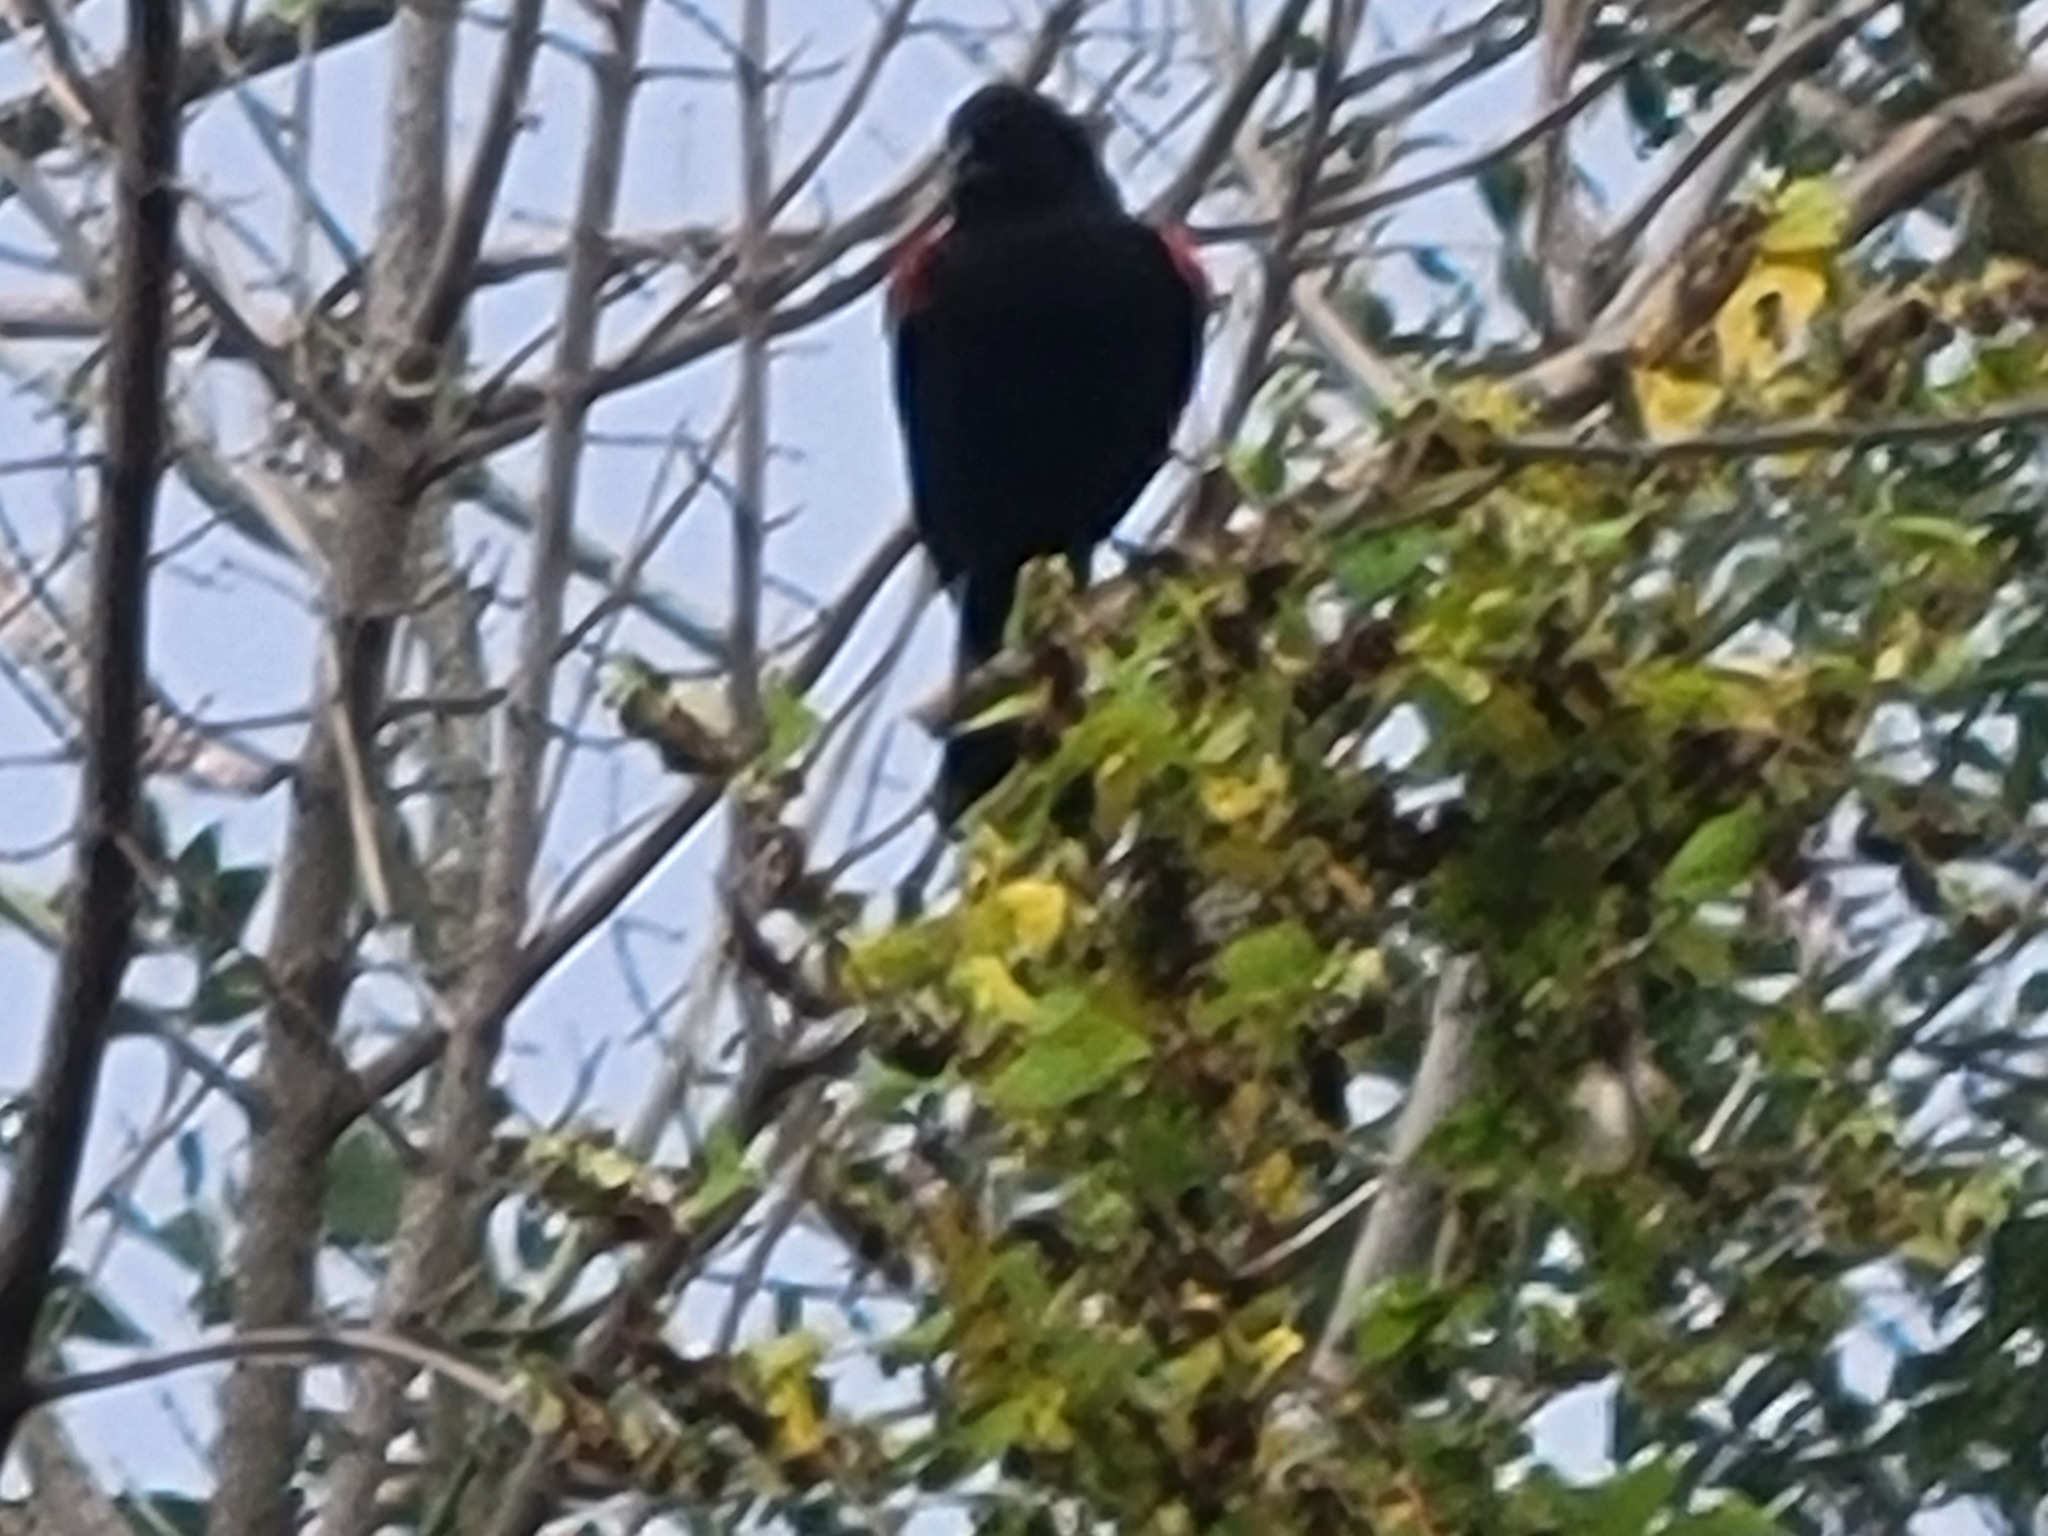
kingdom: Animalia
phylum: Chordata
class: Aves
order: Passeriformes
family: Icteridae
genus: Agelaius
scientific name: Agelaius phoeniceus
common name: Red-winged blackbird
